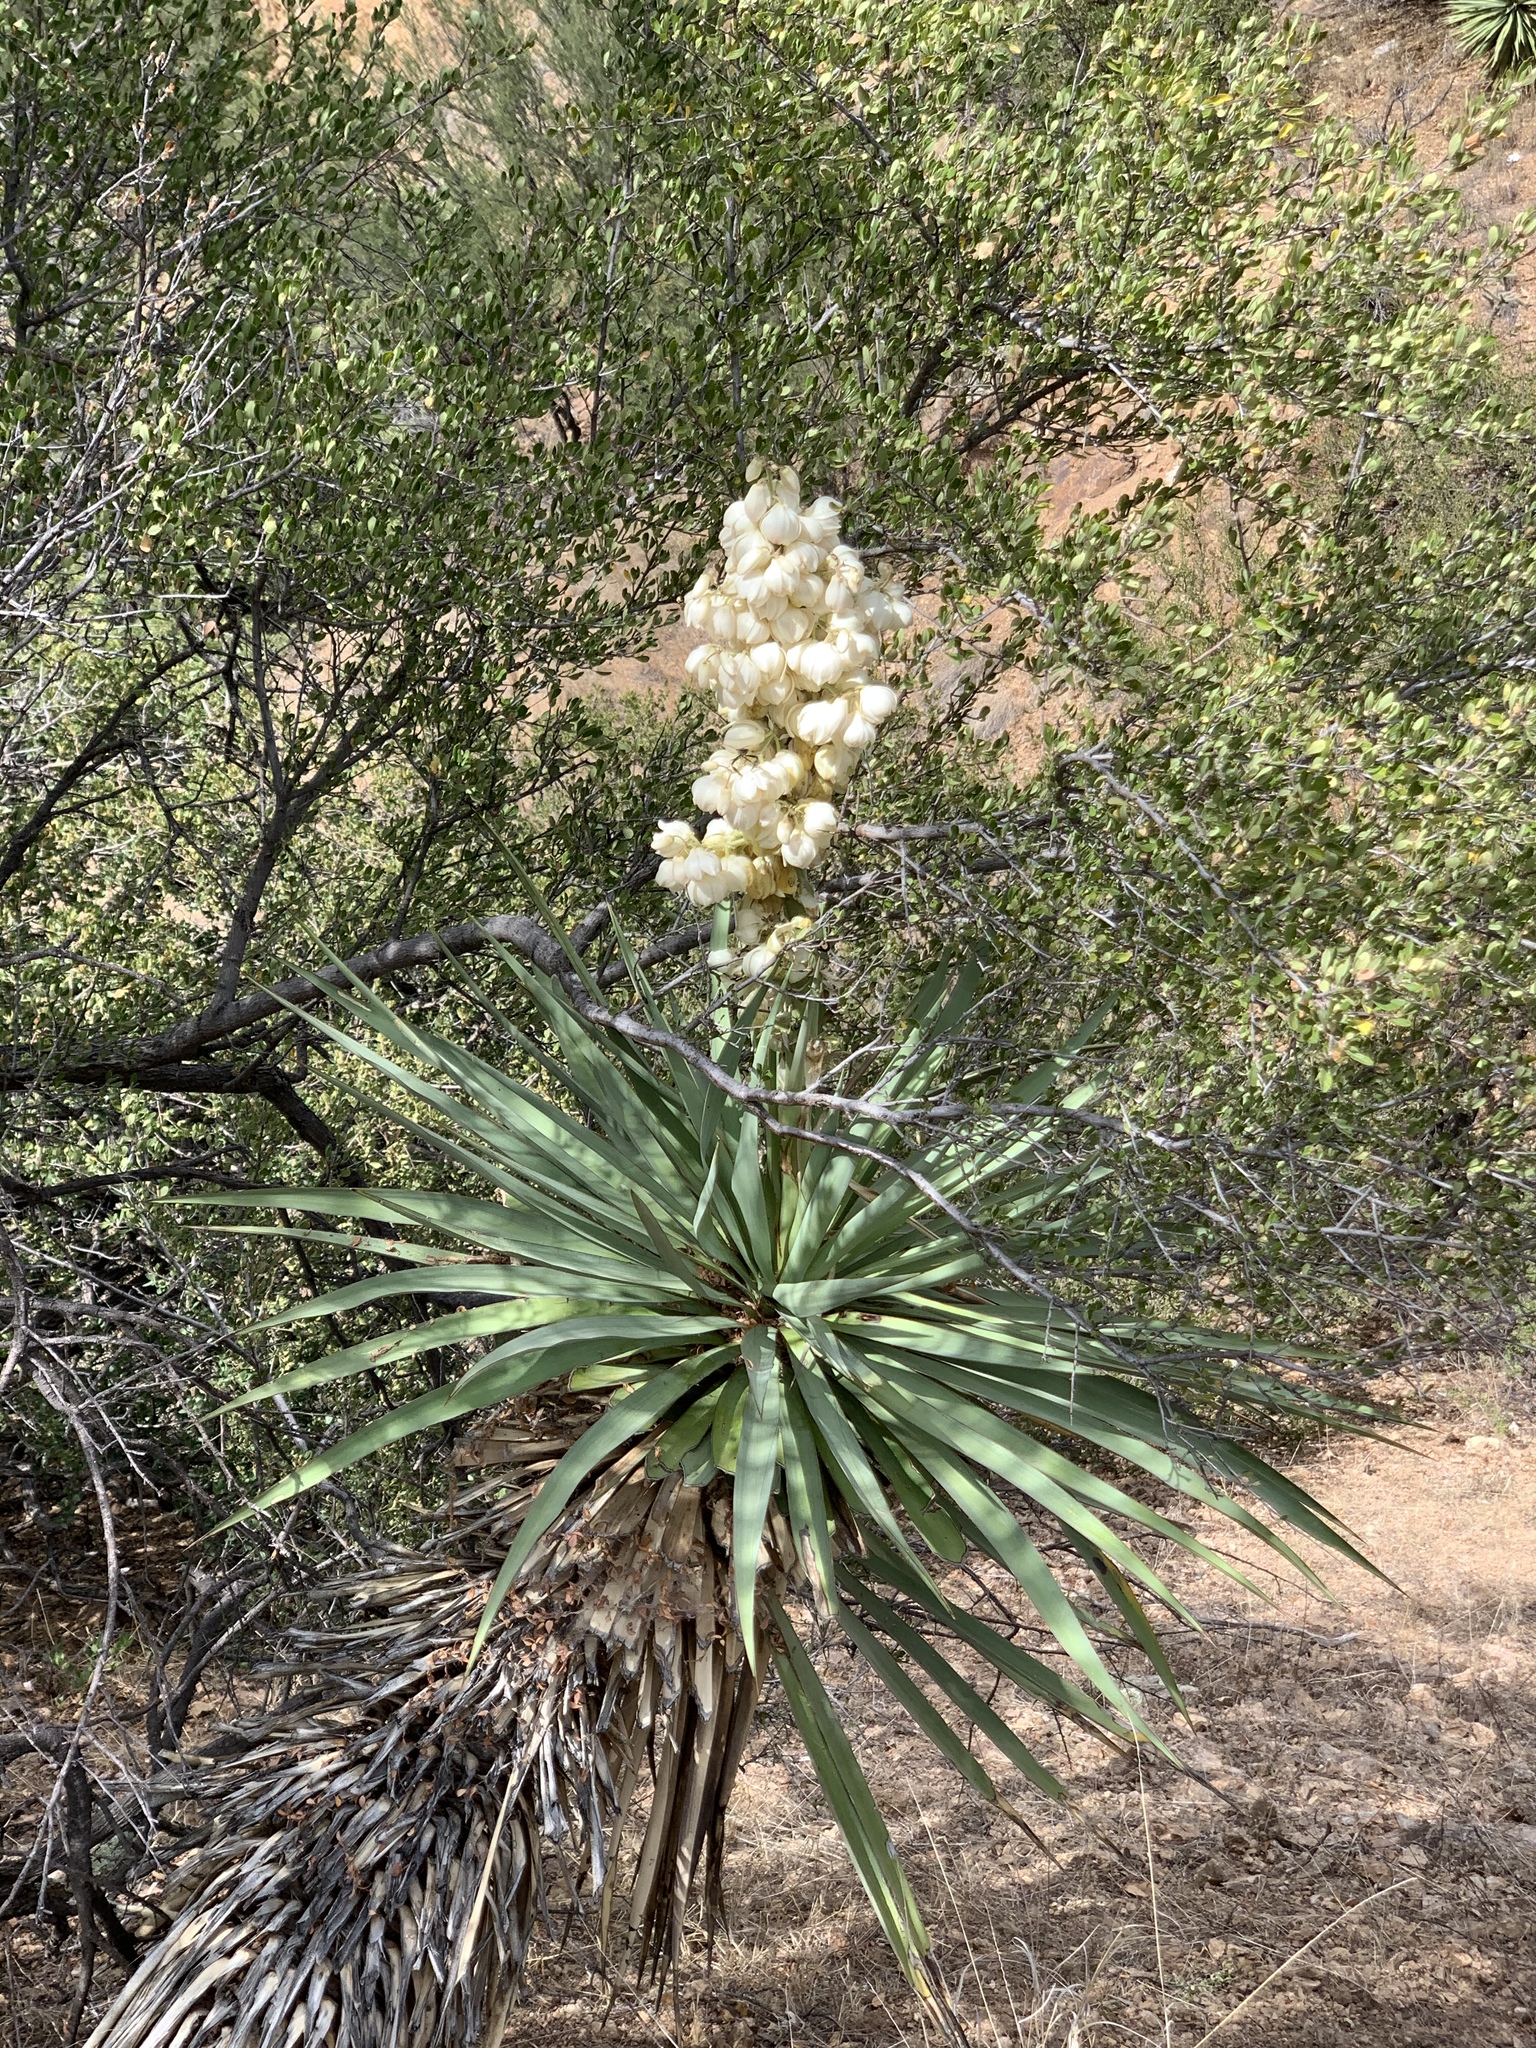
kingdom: Plantae
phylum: Tracheophyta
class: Liliopsida
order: Asparagales
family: Asparagaceae
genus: Yucca
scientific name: Yucca madrensis
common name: Hoary yucca
